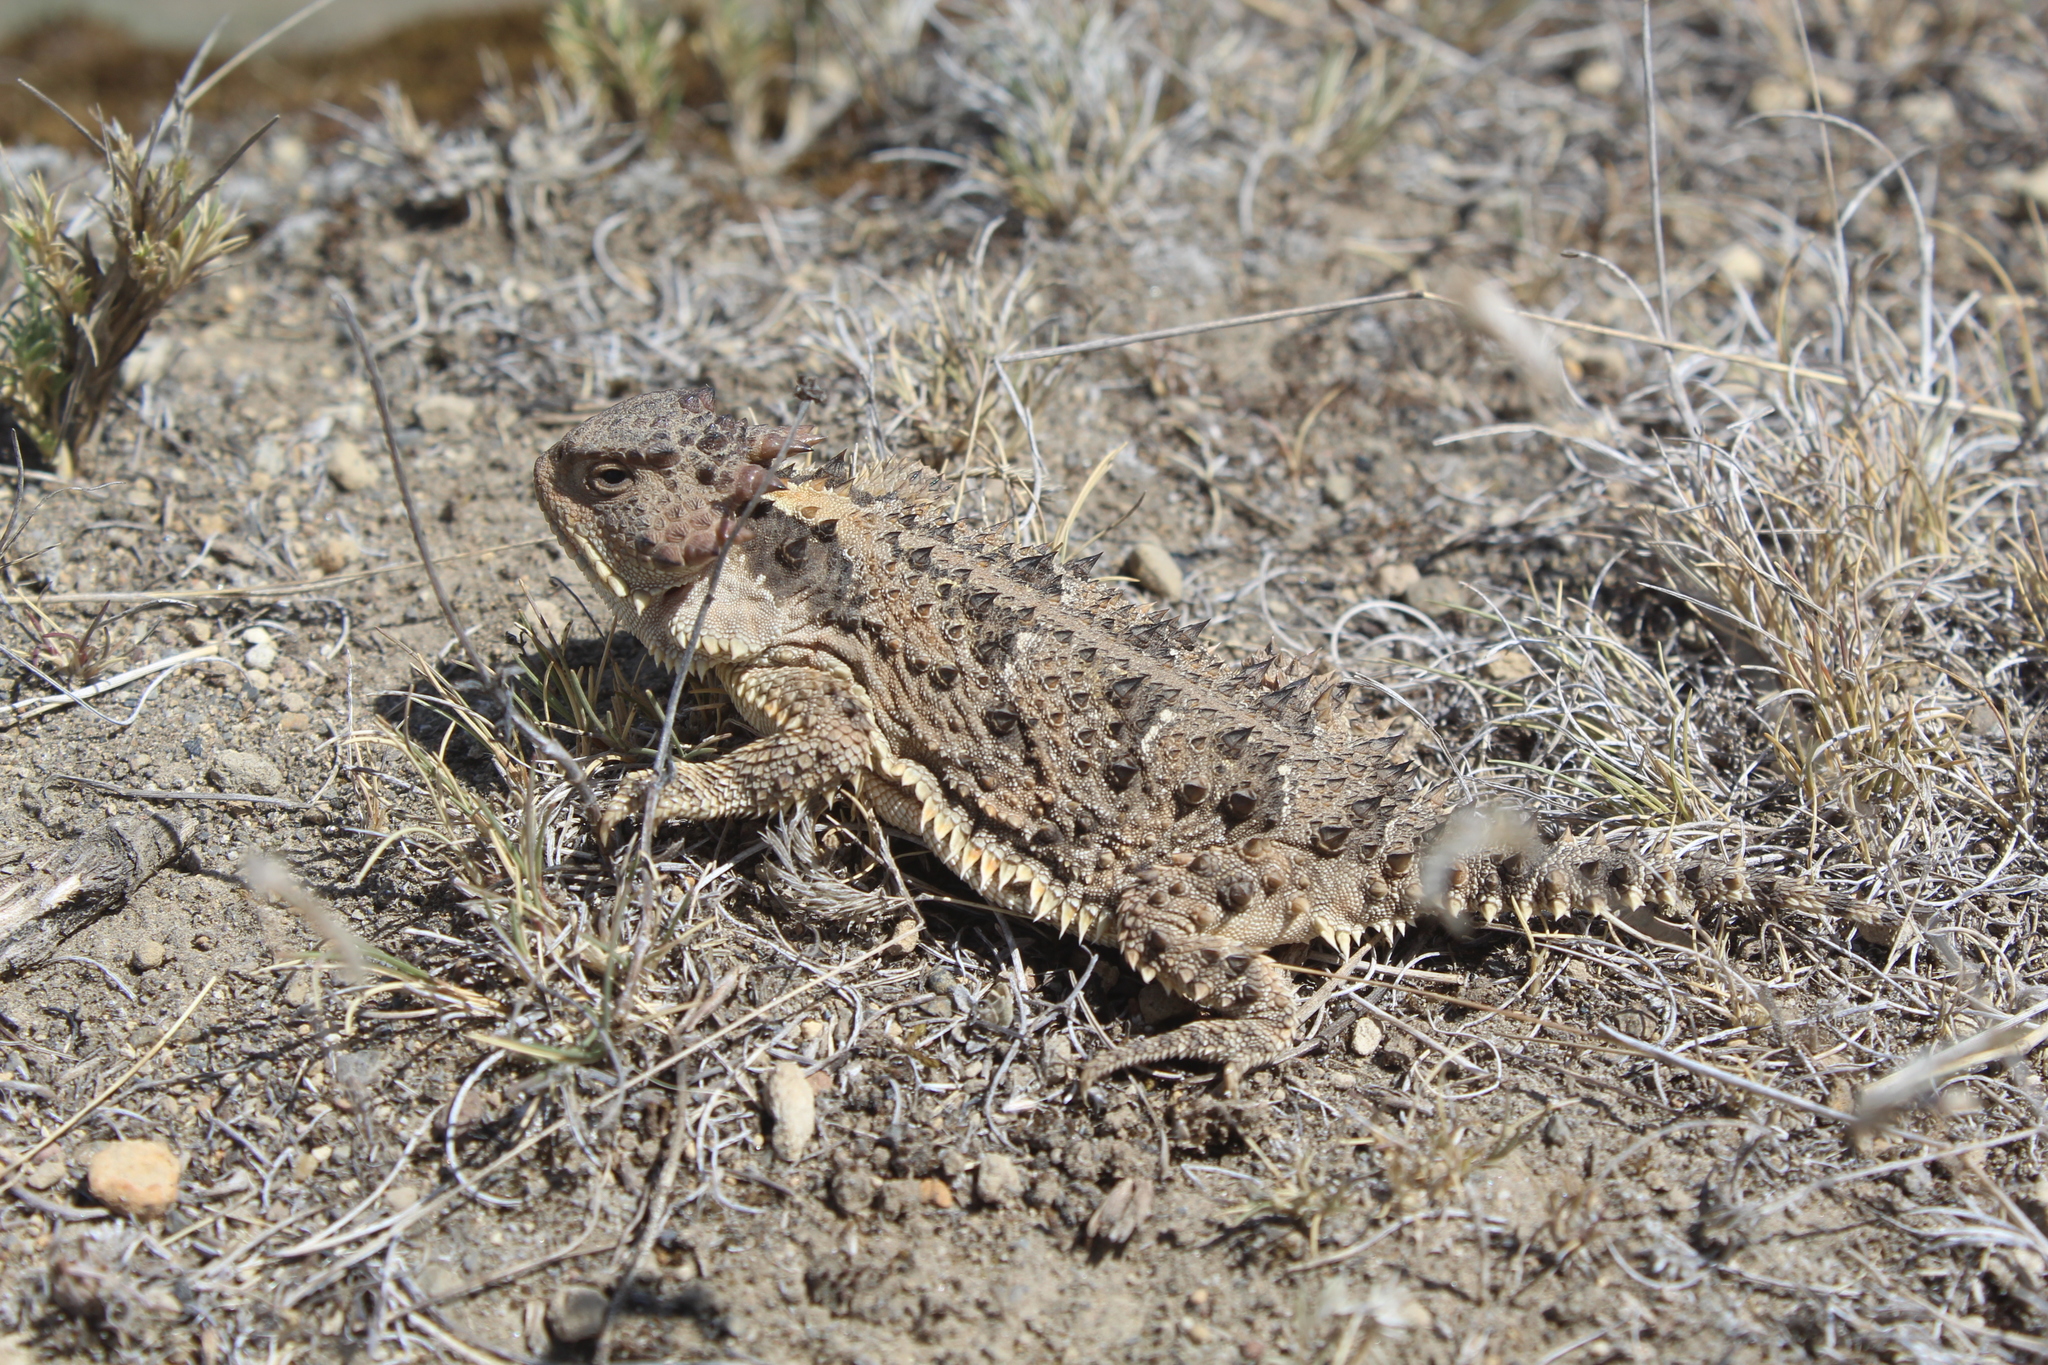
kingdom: Animalia
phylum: Chordata
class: Squamata
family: Phrynosomatidae
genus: Phrynosoma
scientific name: Phrynosoma orbiculare
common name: Mountain horned lizard
